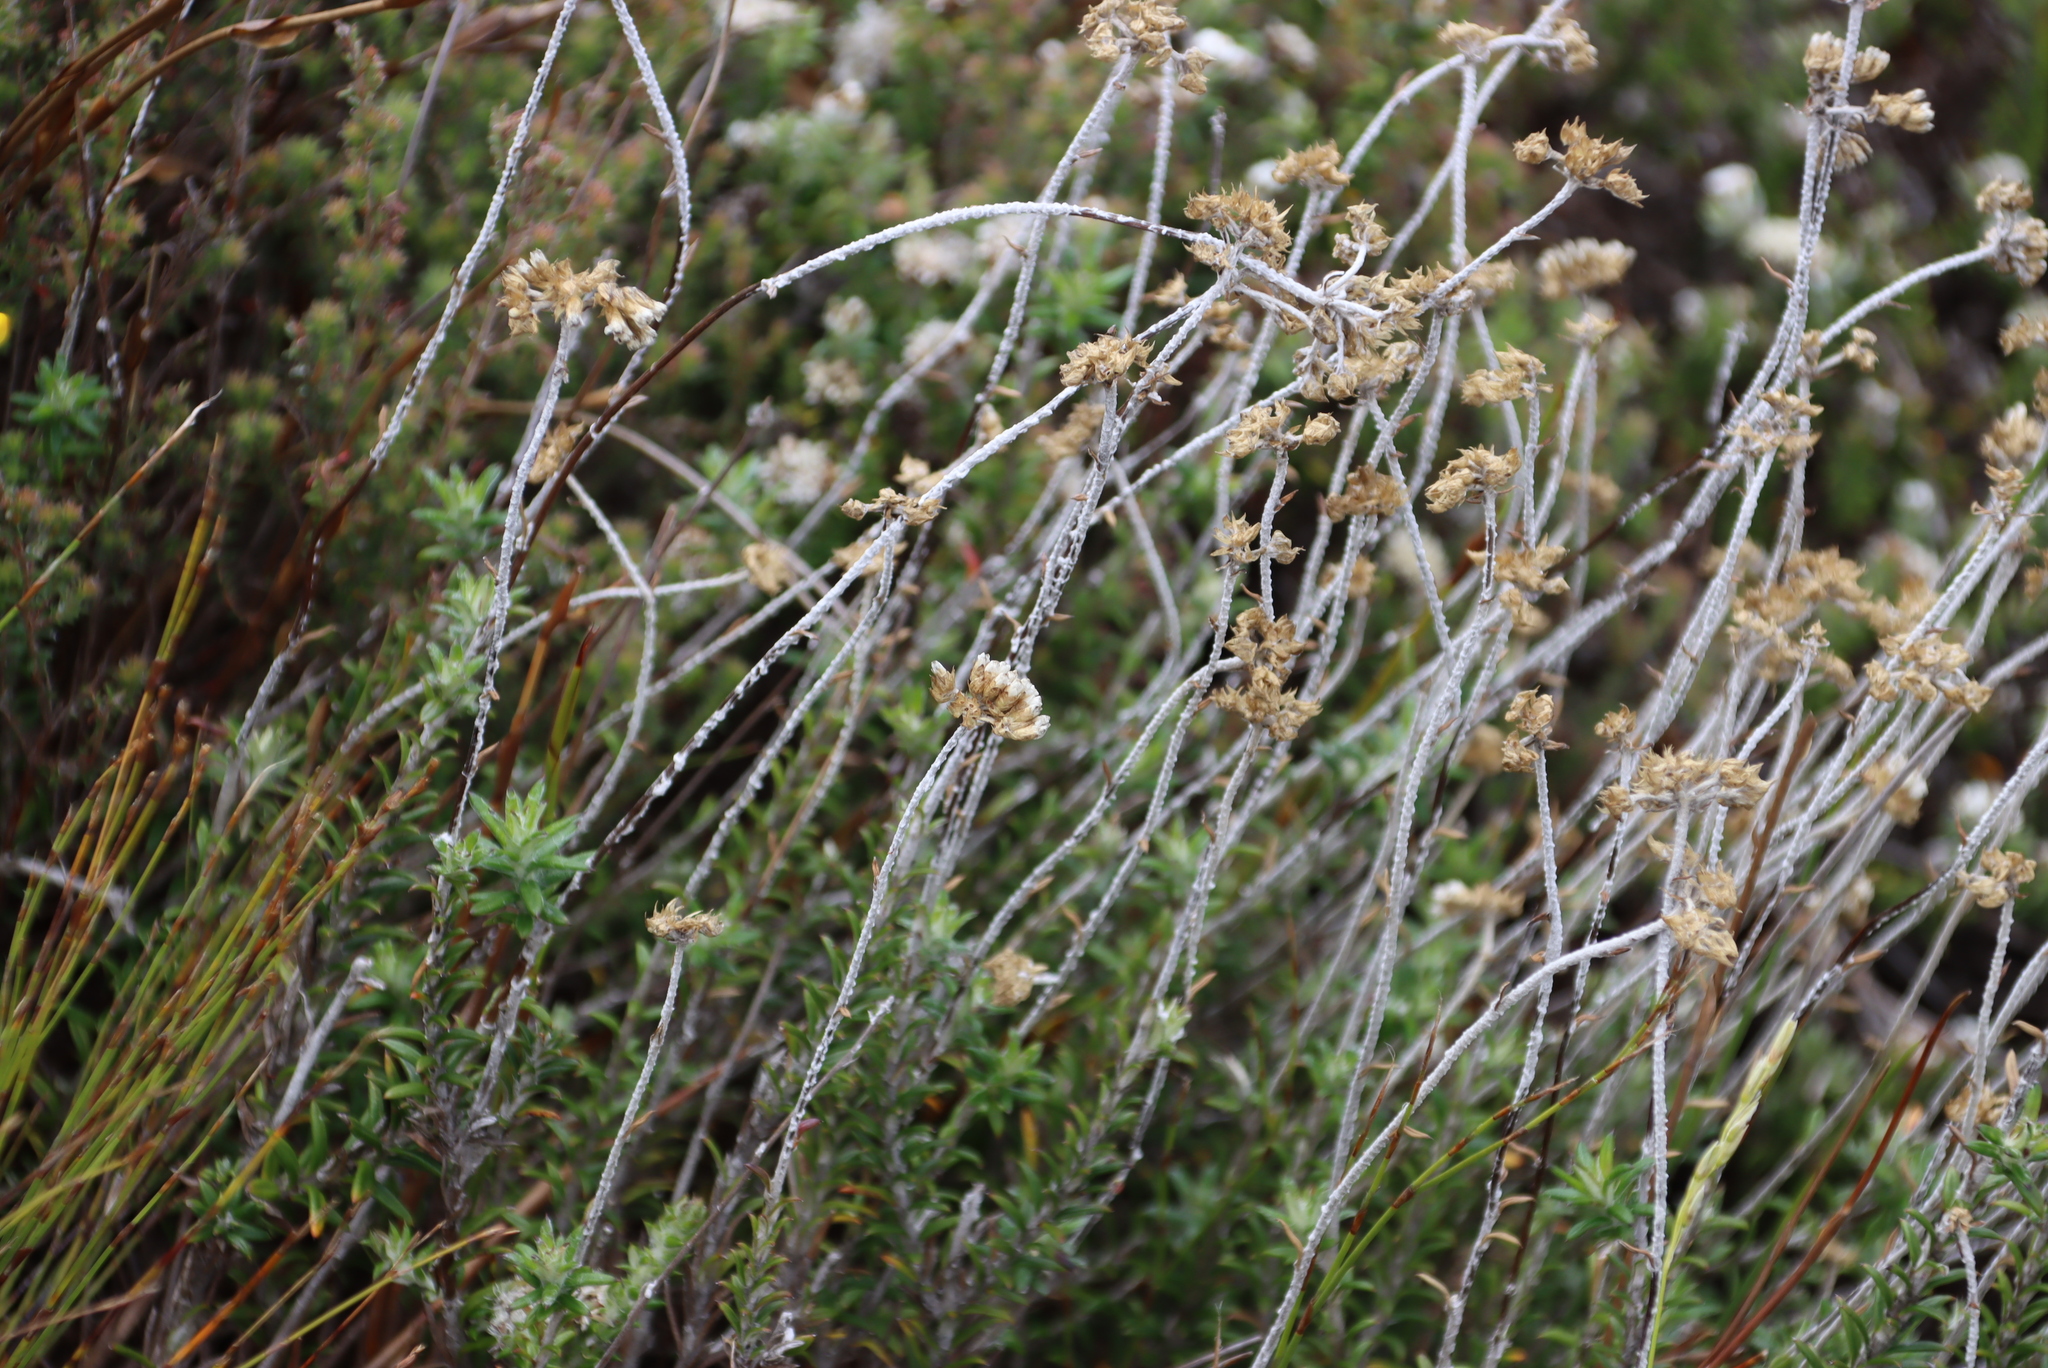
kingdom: Plantae
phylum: Tracheophyta
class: Magnoliopsida
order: Asterales
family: Asteraceae
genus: Anaxeton
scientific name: Anaxeton arborescens
